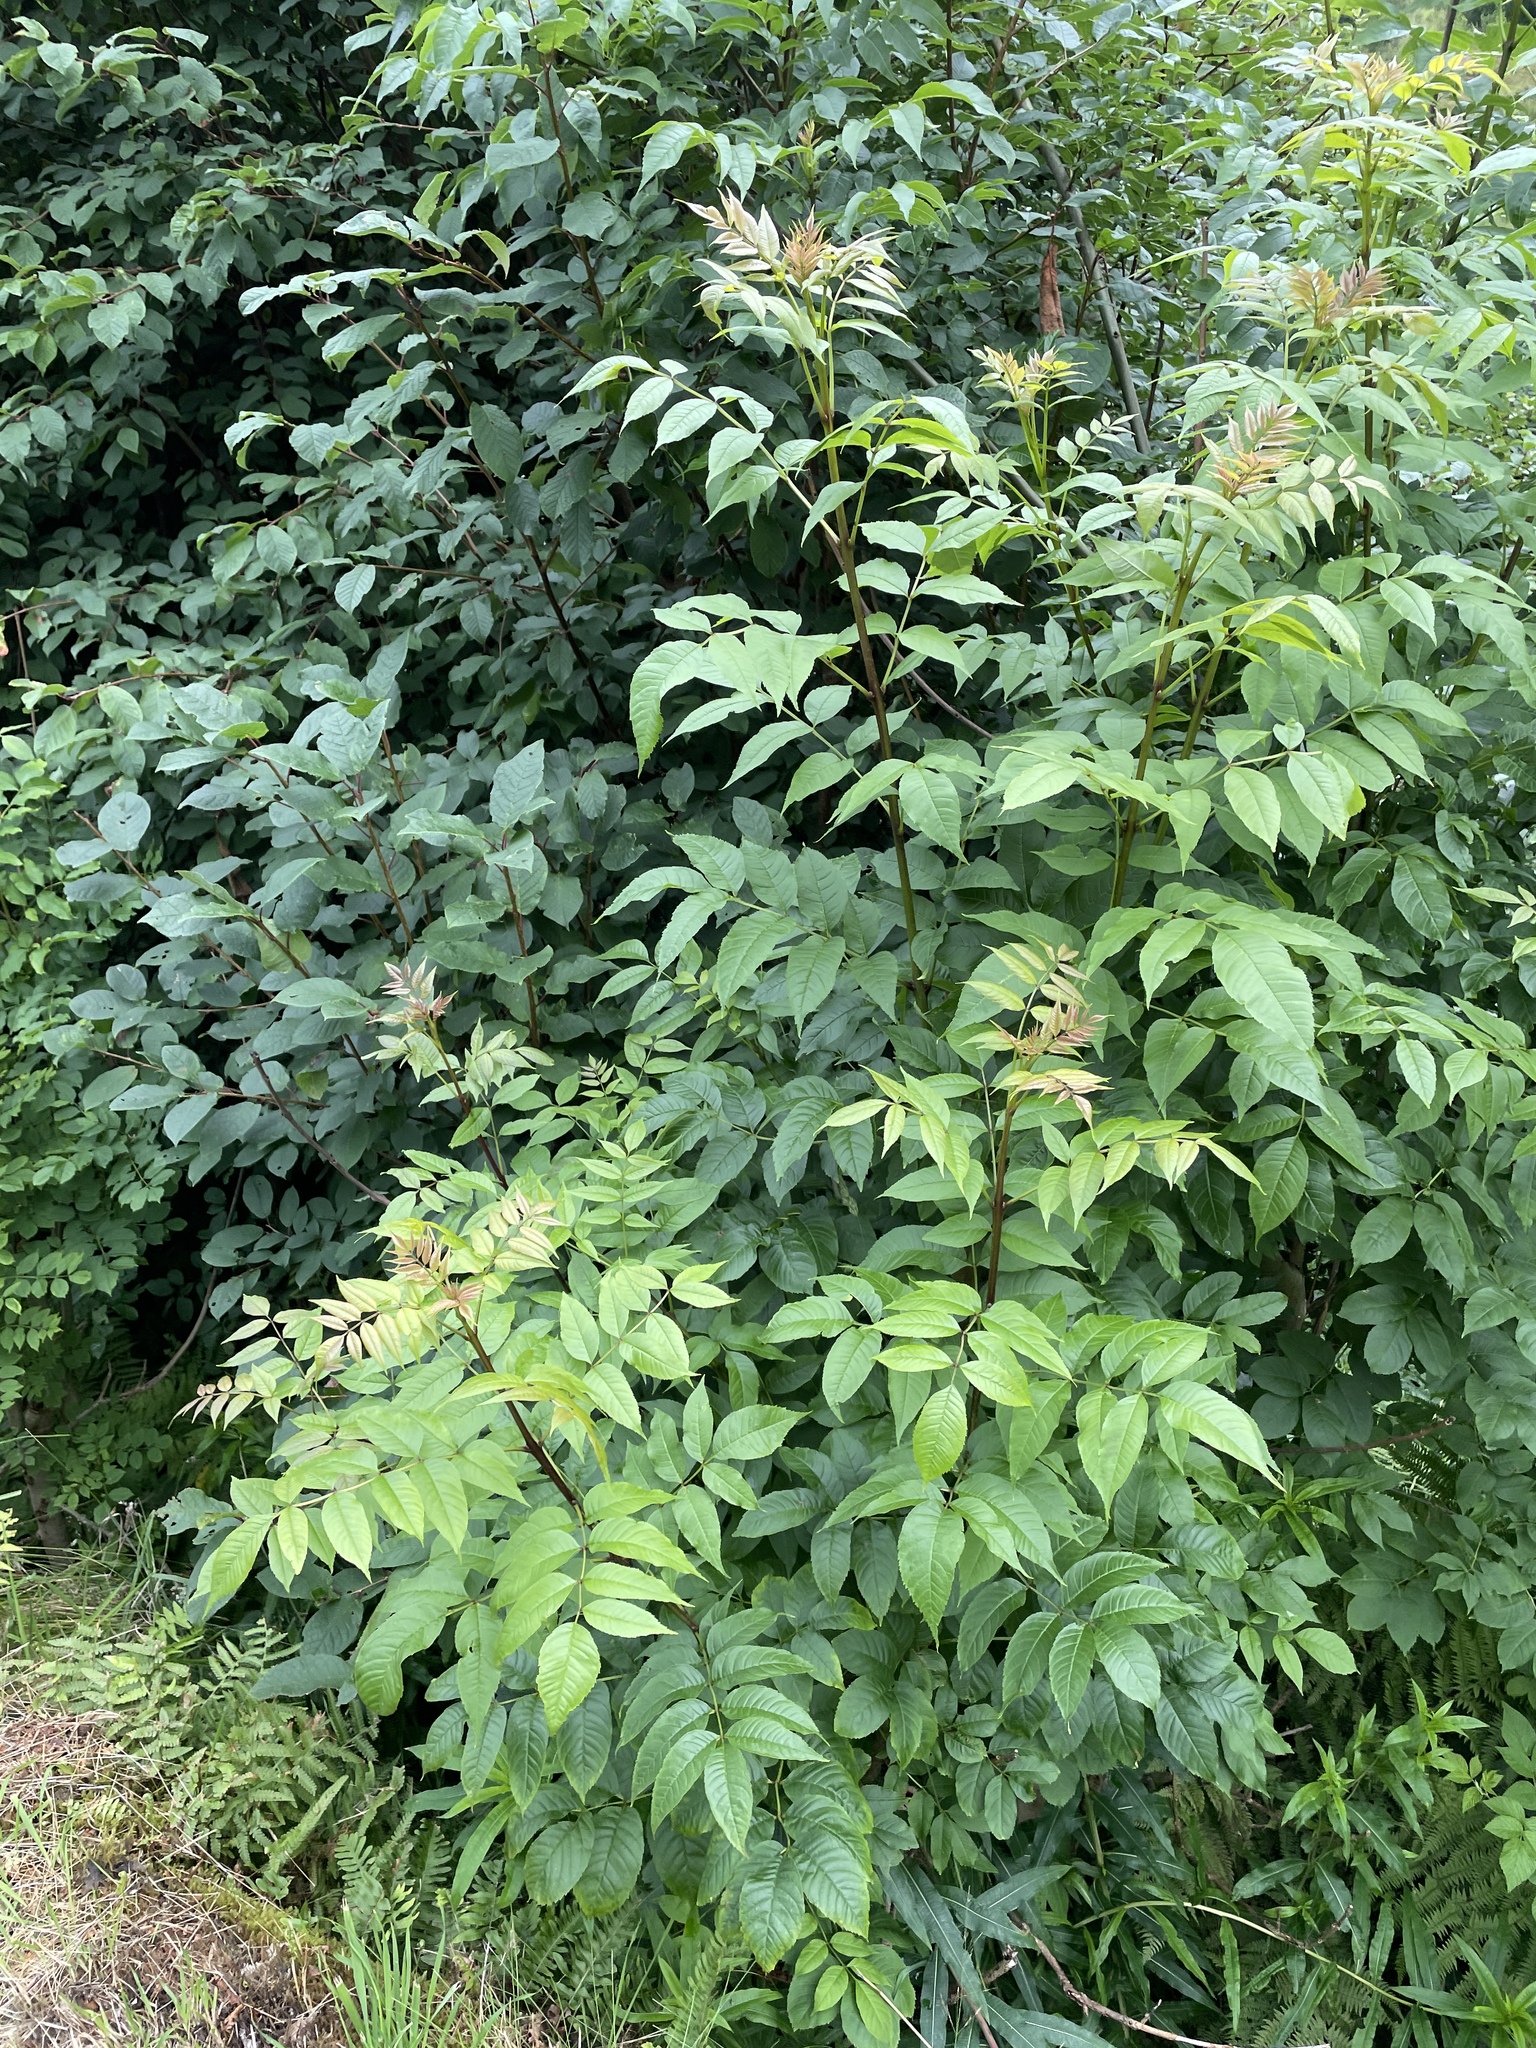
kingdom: Plantae
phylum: Tracheophyta
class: Magnoliopsida
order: Lamiales
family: Oleaceae
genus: Fraxinus
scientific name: Fraxinus excelsior
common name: European ash
